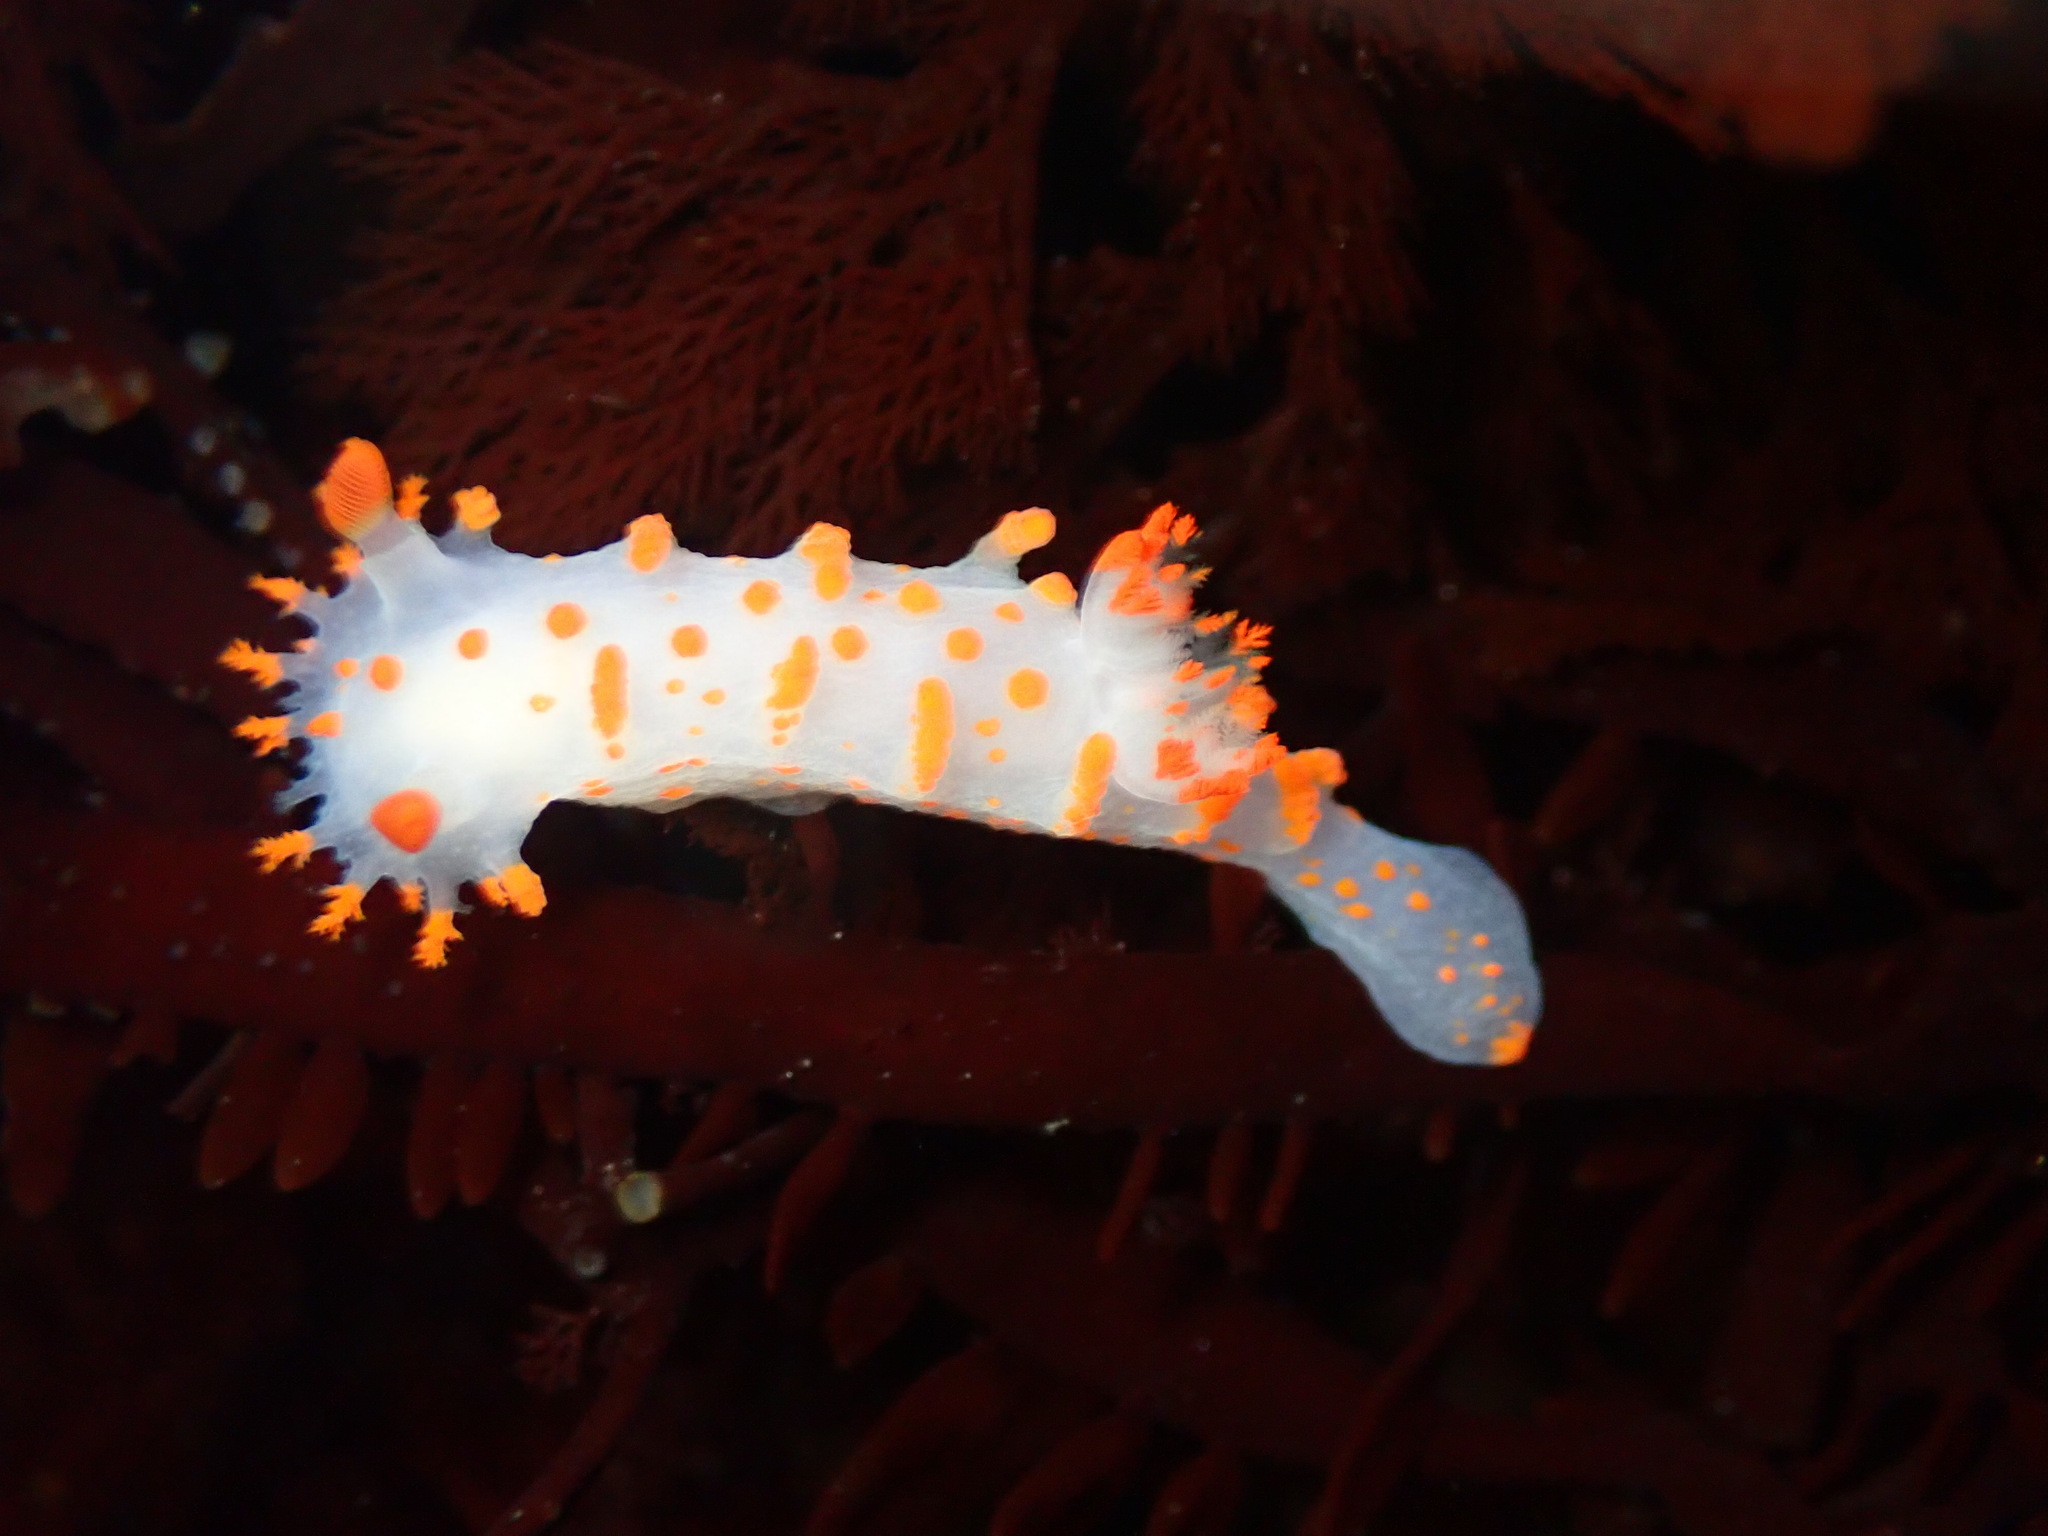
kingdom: Animalia
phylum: Mollusca
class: Gastropoda
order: Nudibranchia
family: Polyceridae
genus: Triopha
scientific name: Triopha catalinae
